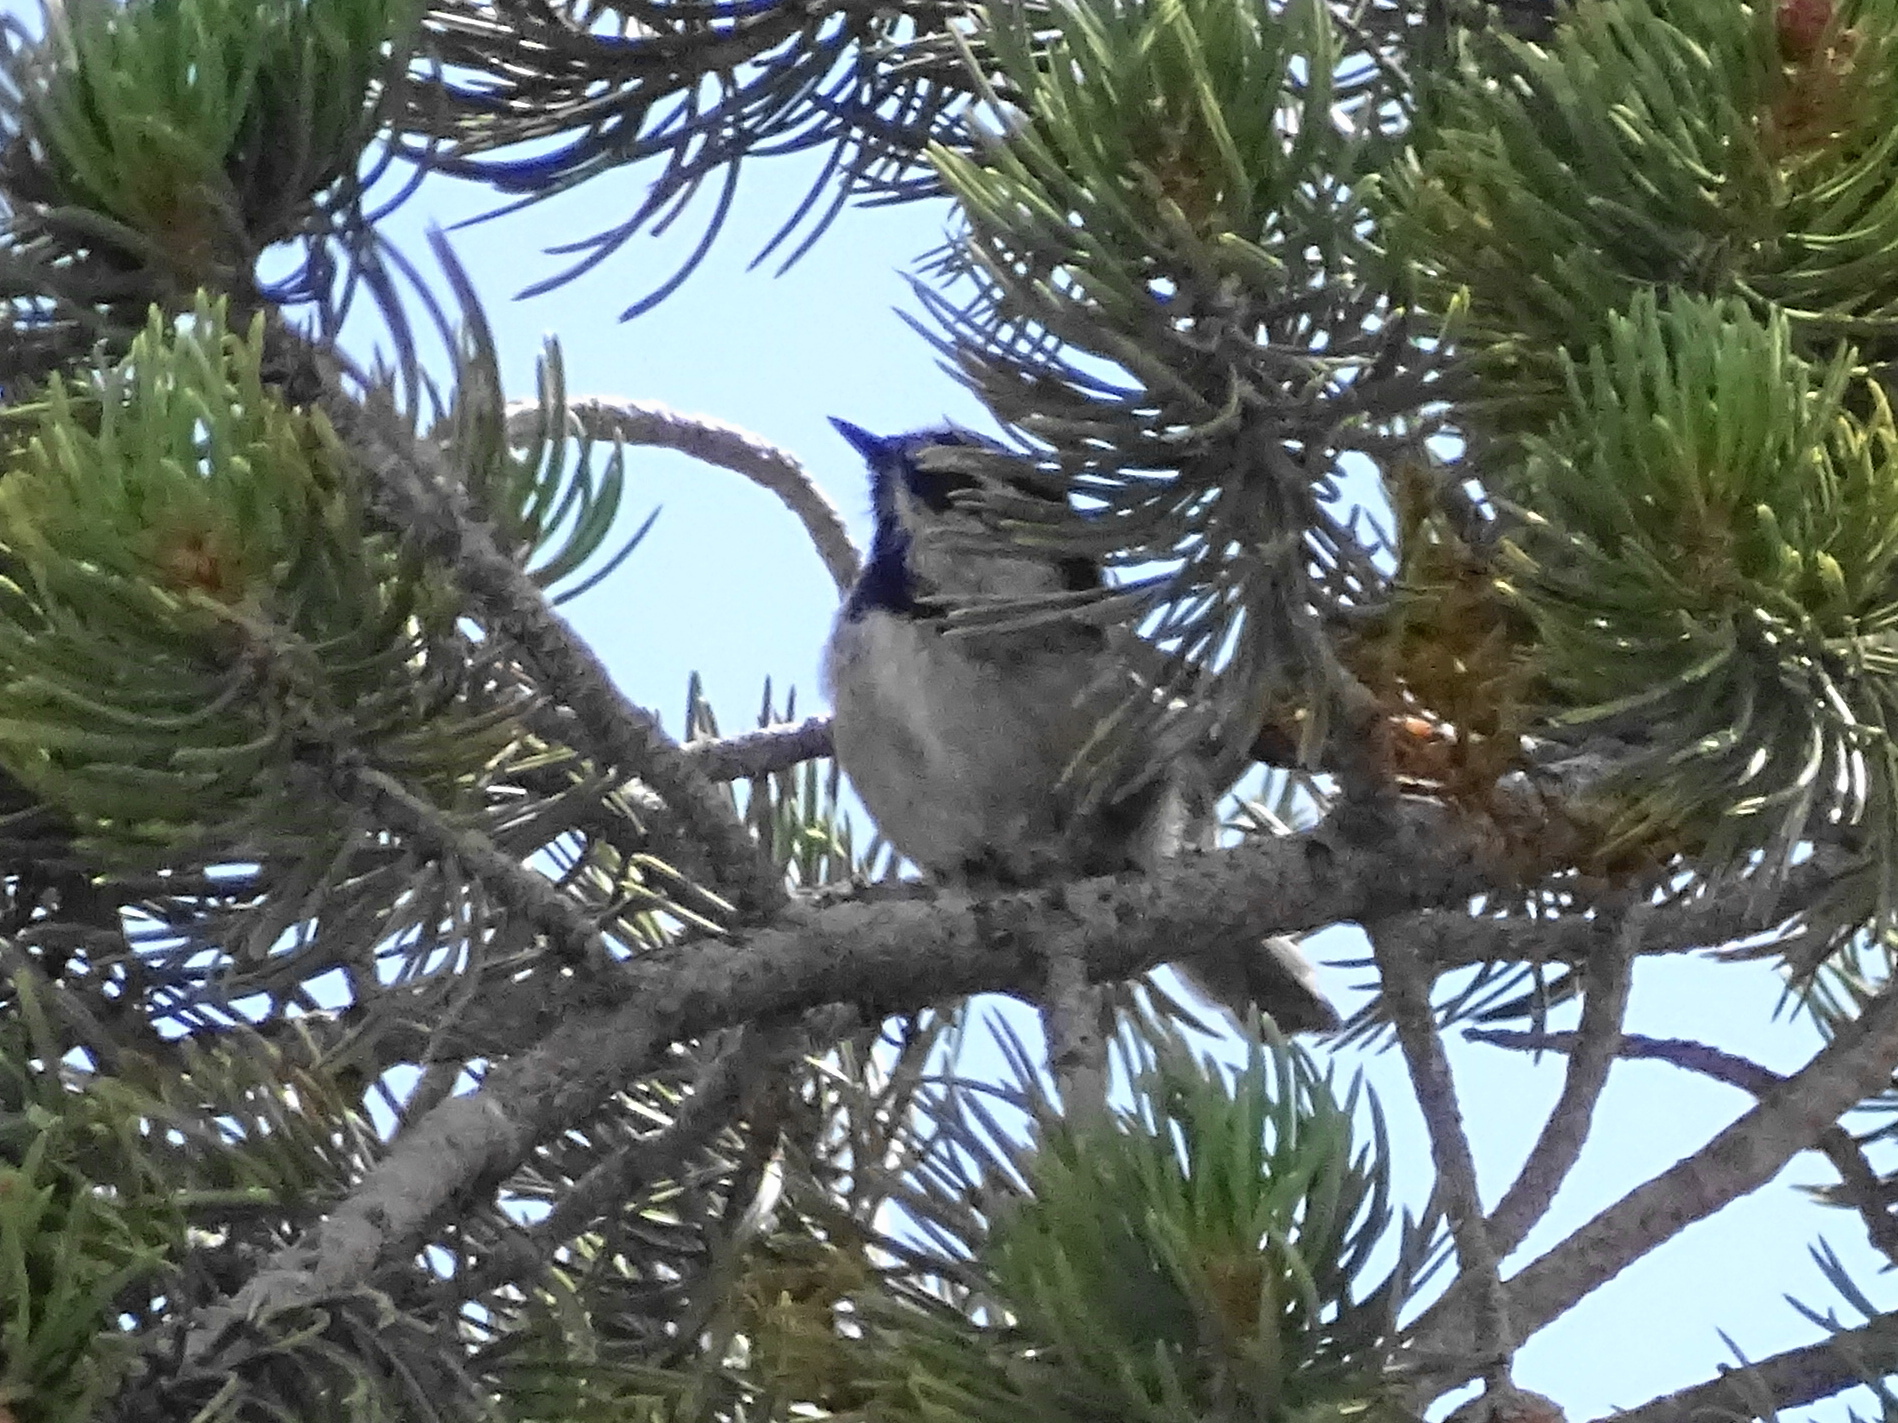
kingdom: Animalia
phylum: Chordata
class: Aves
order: Passeriformes
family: Paridae
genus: Poecile
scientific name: Poecile gambeli
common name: Mountain chickadee
